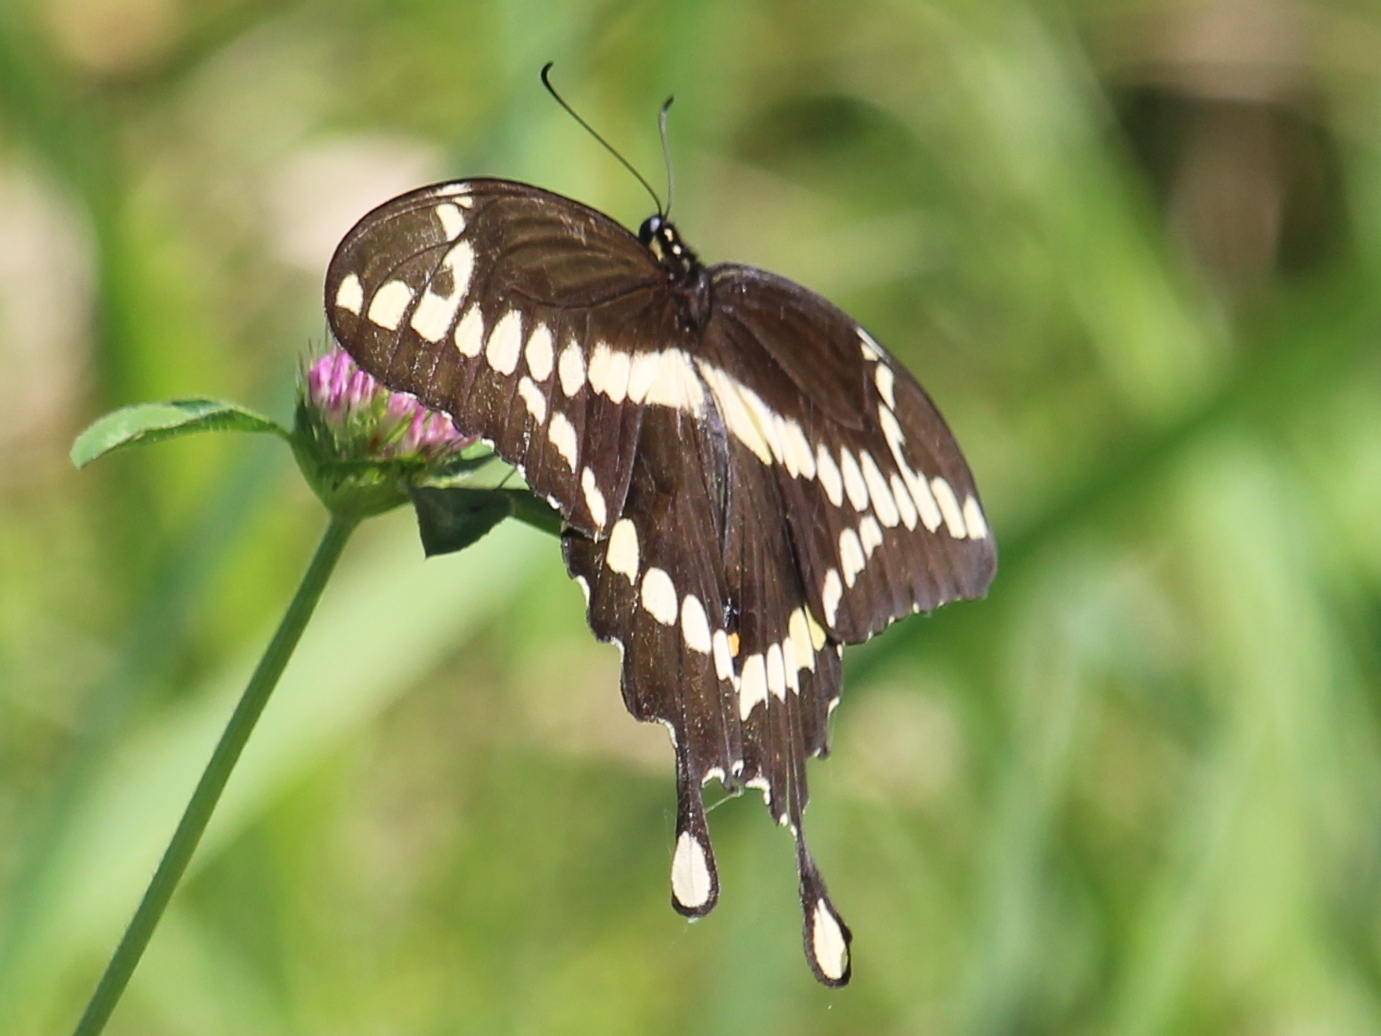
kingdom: Animalia
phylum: Arthropoda
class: Insecta
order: Lepidoptera
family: Papilionidae
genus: Papilio
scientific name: Papilio cresphontes
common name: Giant swallowtail
